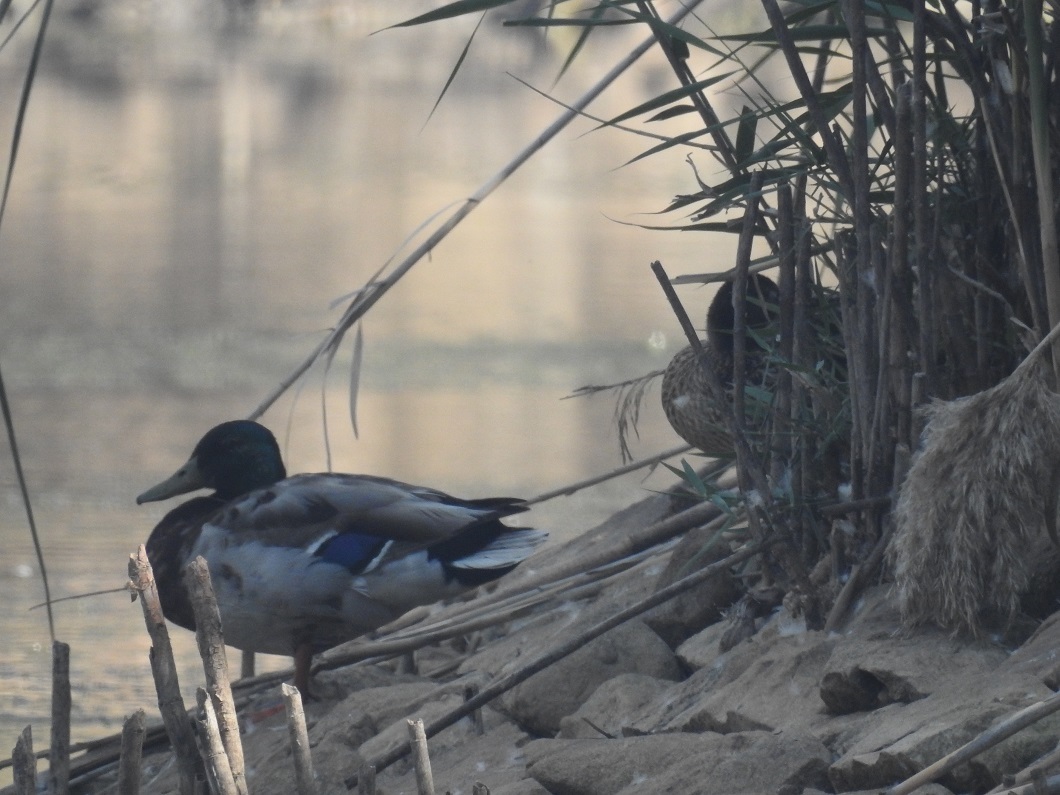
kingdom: Animalia
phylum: Chordata
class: Aves
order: Anseriformes
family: Anatidae
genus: Anas
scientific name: Anas platyrhynchos
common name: Mallard
